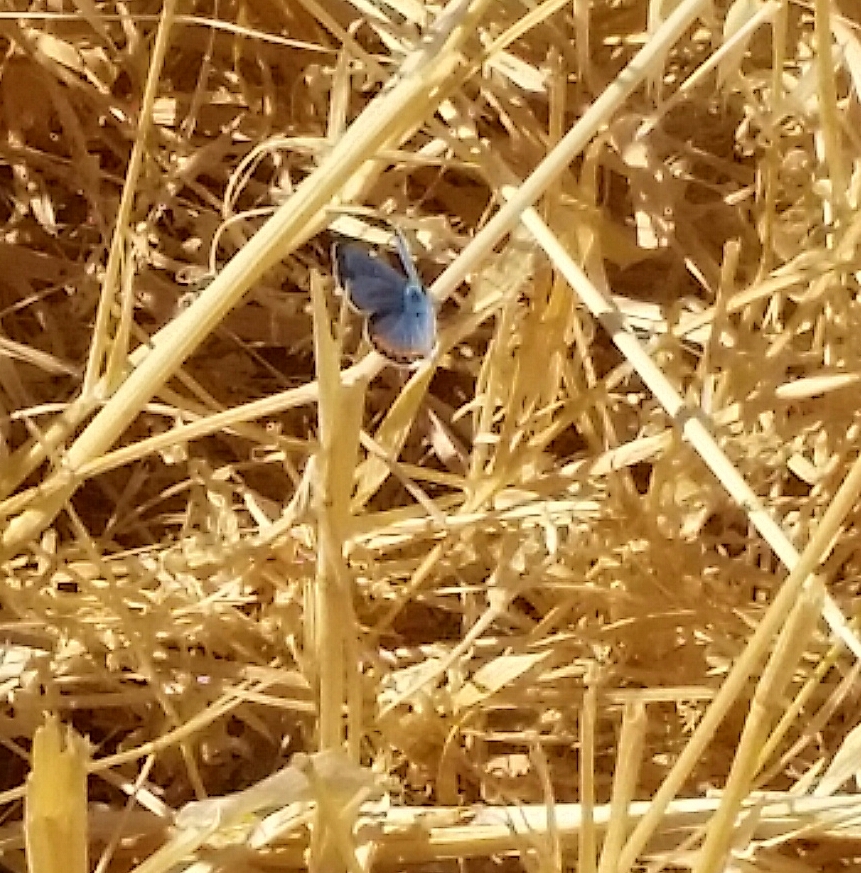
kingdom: Animalia
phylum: Arthropoda
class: Insecta
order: Lepidoptera
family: Lycaenidae
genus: Icaricia
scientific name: Icaricia acmon
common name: Acmon blue
